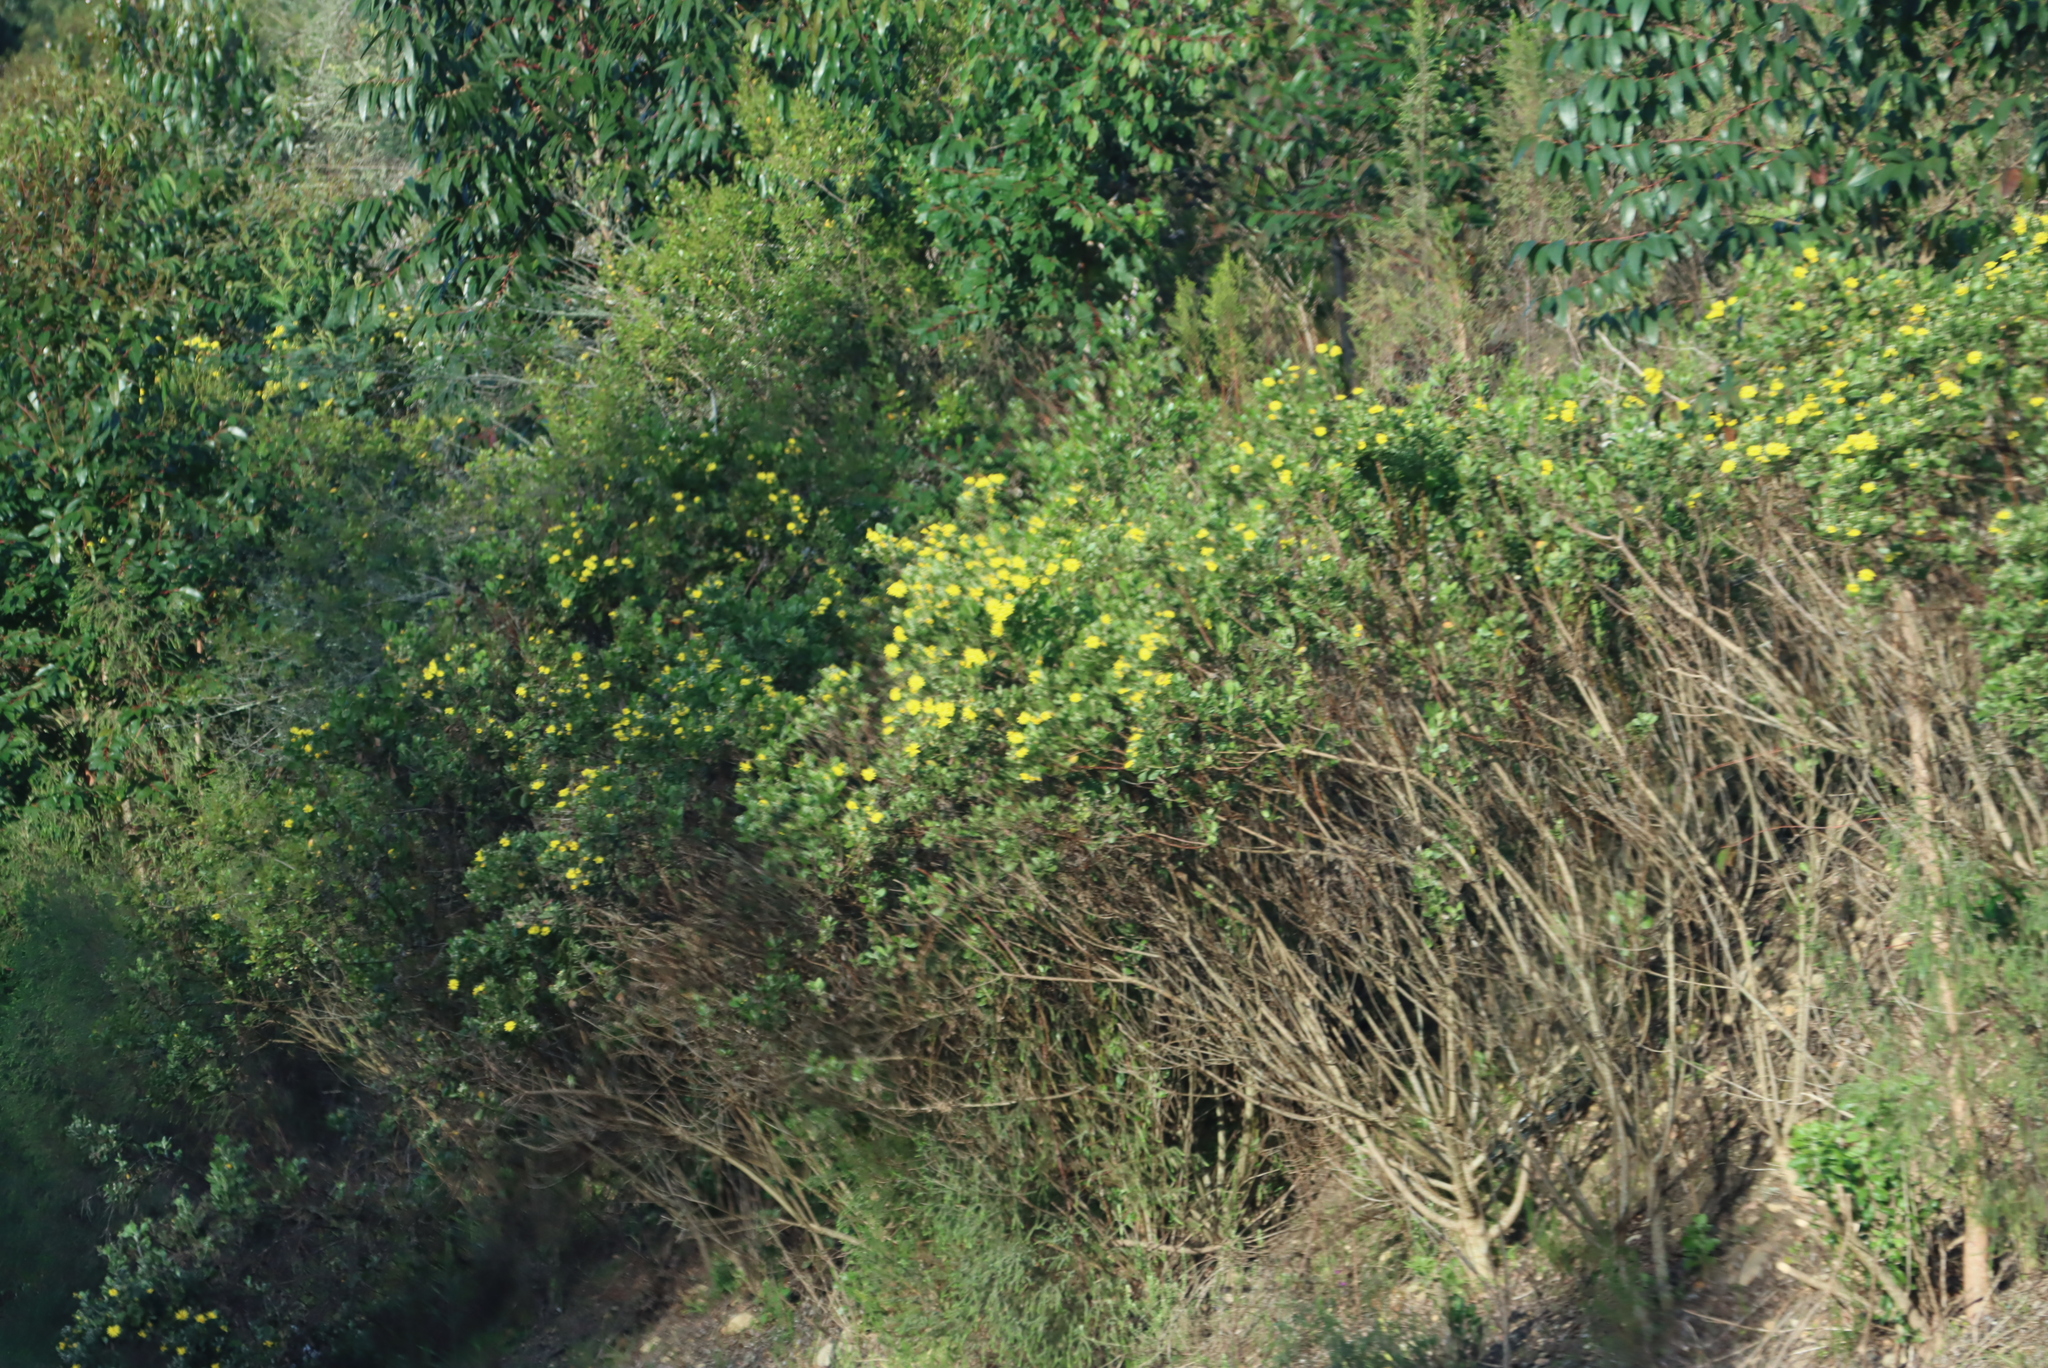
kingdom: Plantae
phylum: Tracheophyta
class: Magnoliopsida
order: Asterales
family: Asteraceae
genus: Osteospermum
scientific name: Osteospermum moniliferum
